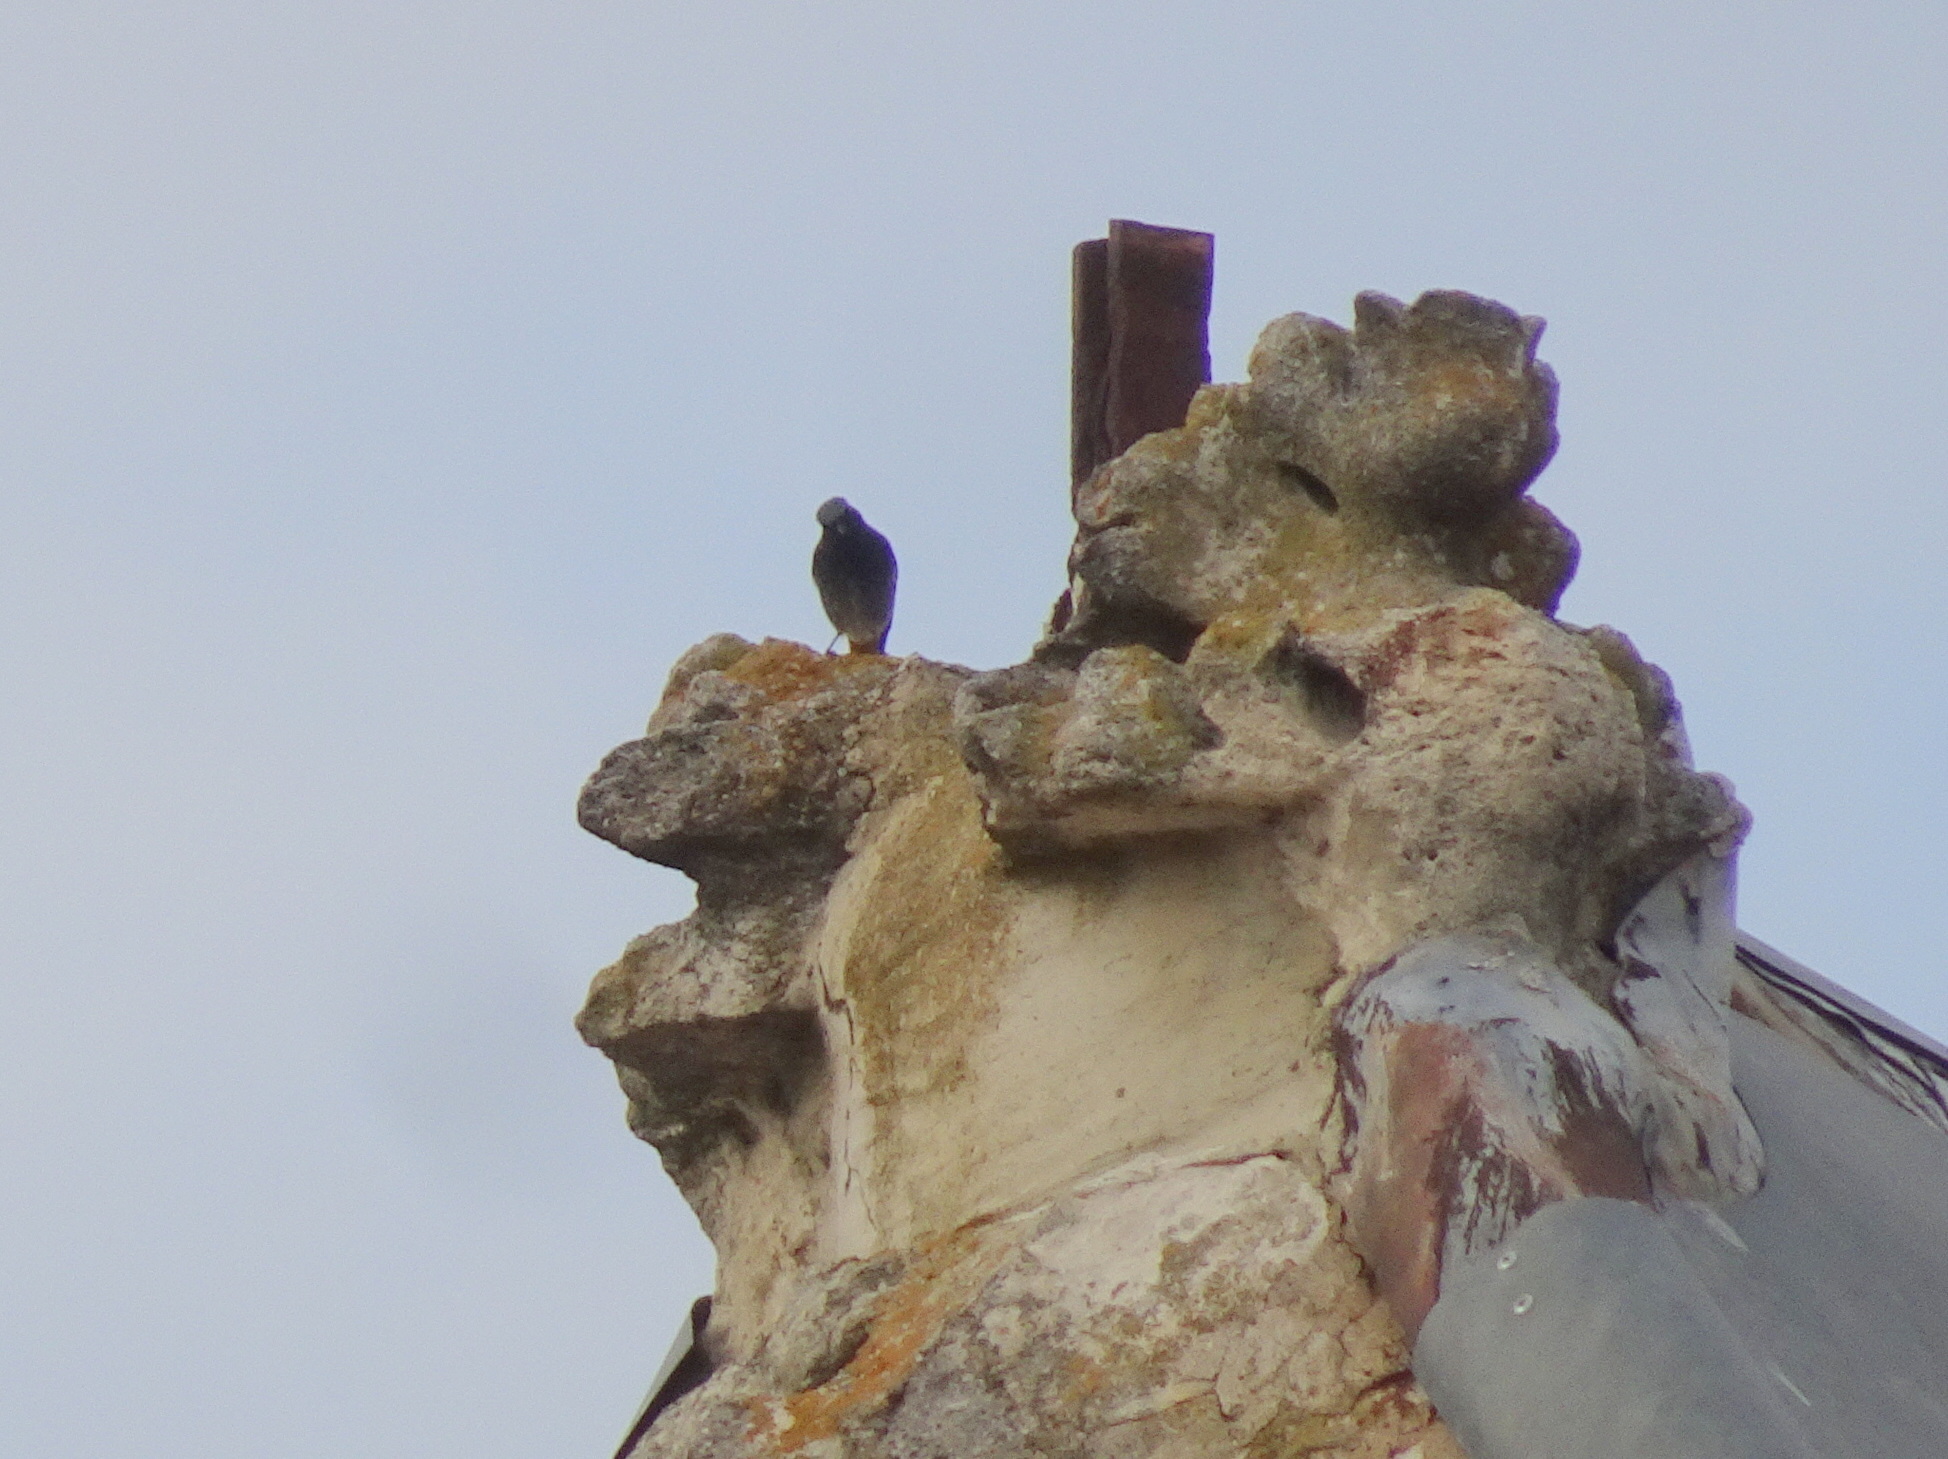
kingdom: Animalia
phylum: Chordata
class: Aves
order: Passeriformes
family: Muscicapidae
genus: Phoenicurus
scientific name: Phoenicurus ochruros
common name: Black redstart
